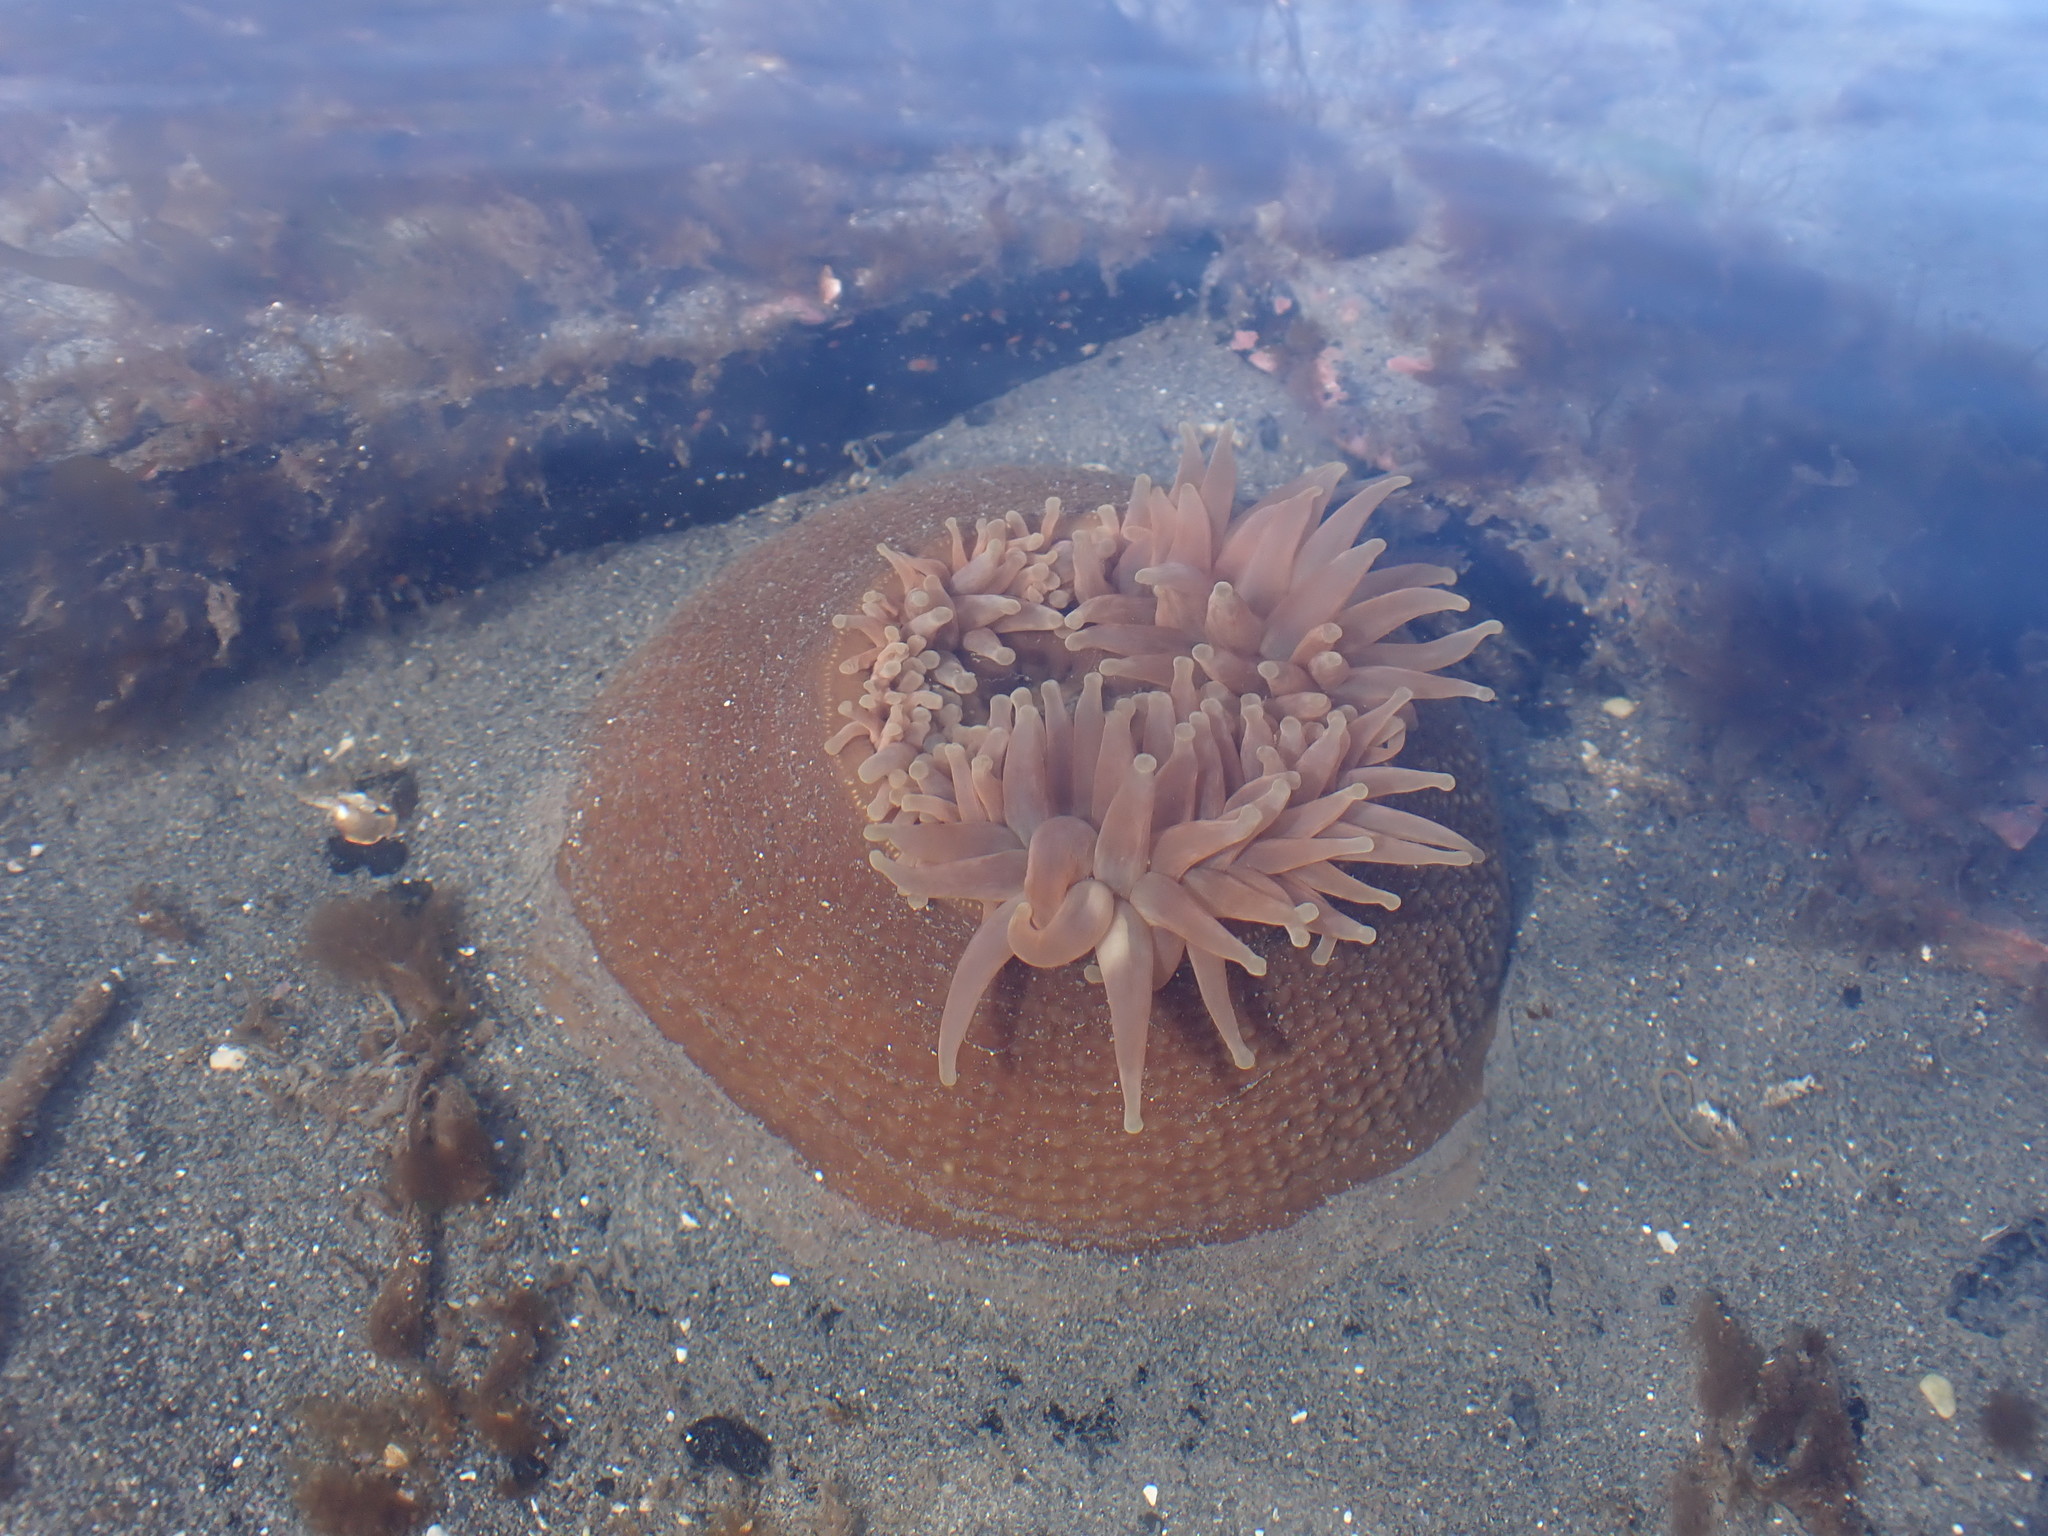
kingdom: Animalia
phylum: Cnidaria
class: Anthozoa
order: Actiniaria
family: Actiniidae
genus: Urticina
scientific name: Urticina grebelnyi
